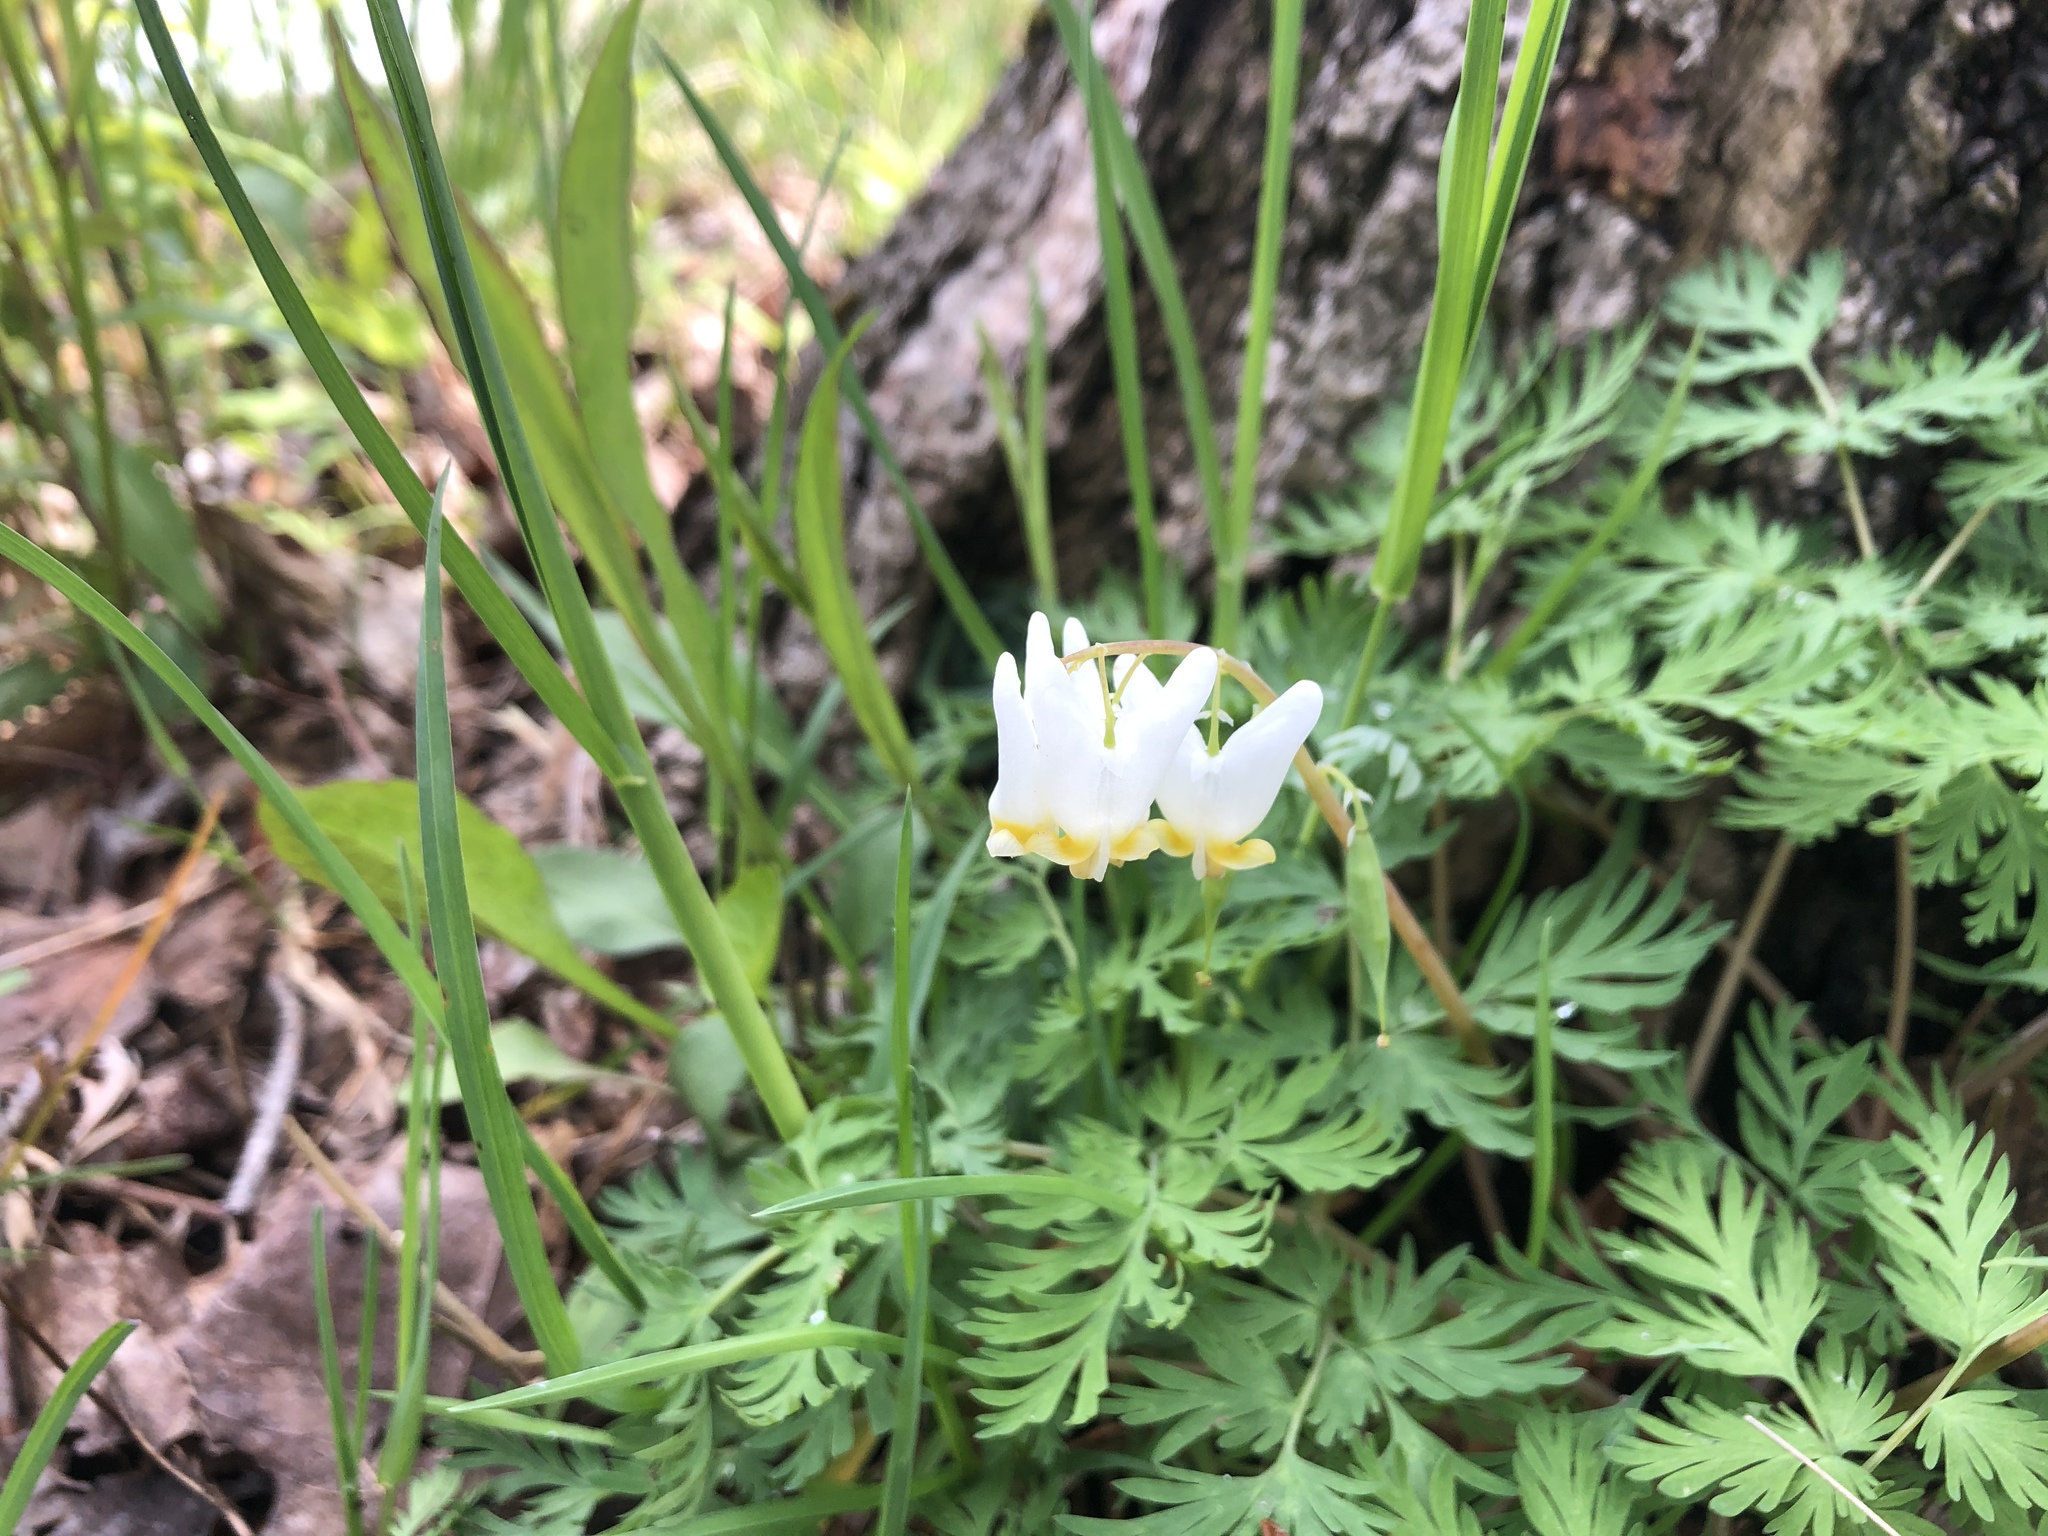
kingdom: Plantae
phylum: Tracheophyta
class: Magnoliopsida
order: Ranunculales
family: Papaveraceae
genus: Dicentra
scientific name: Dicentra cucullaria
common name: Dutchman's breeches
